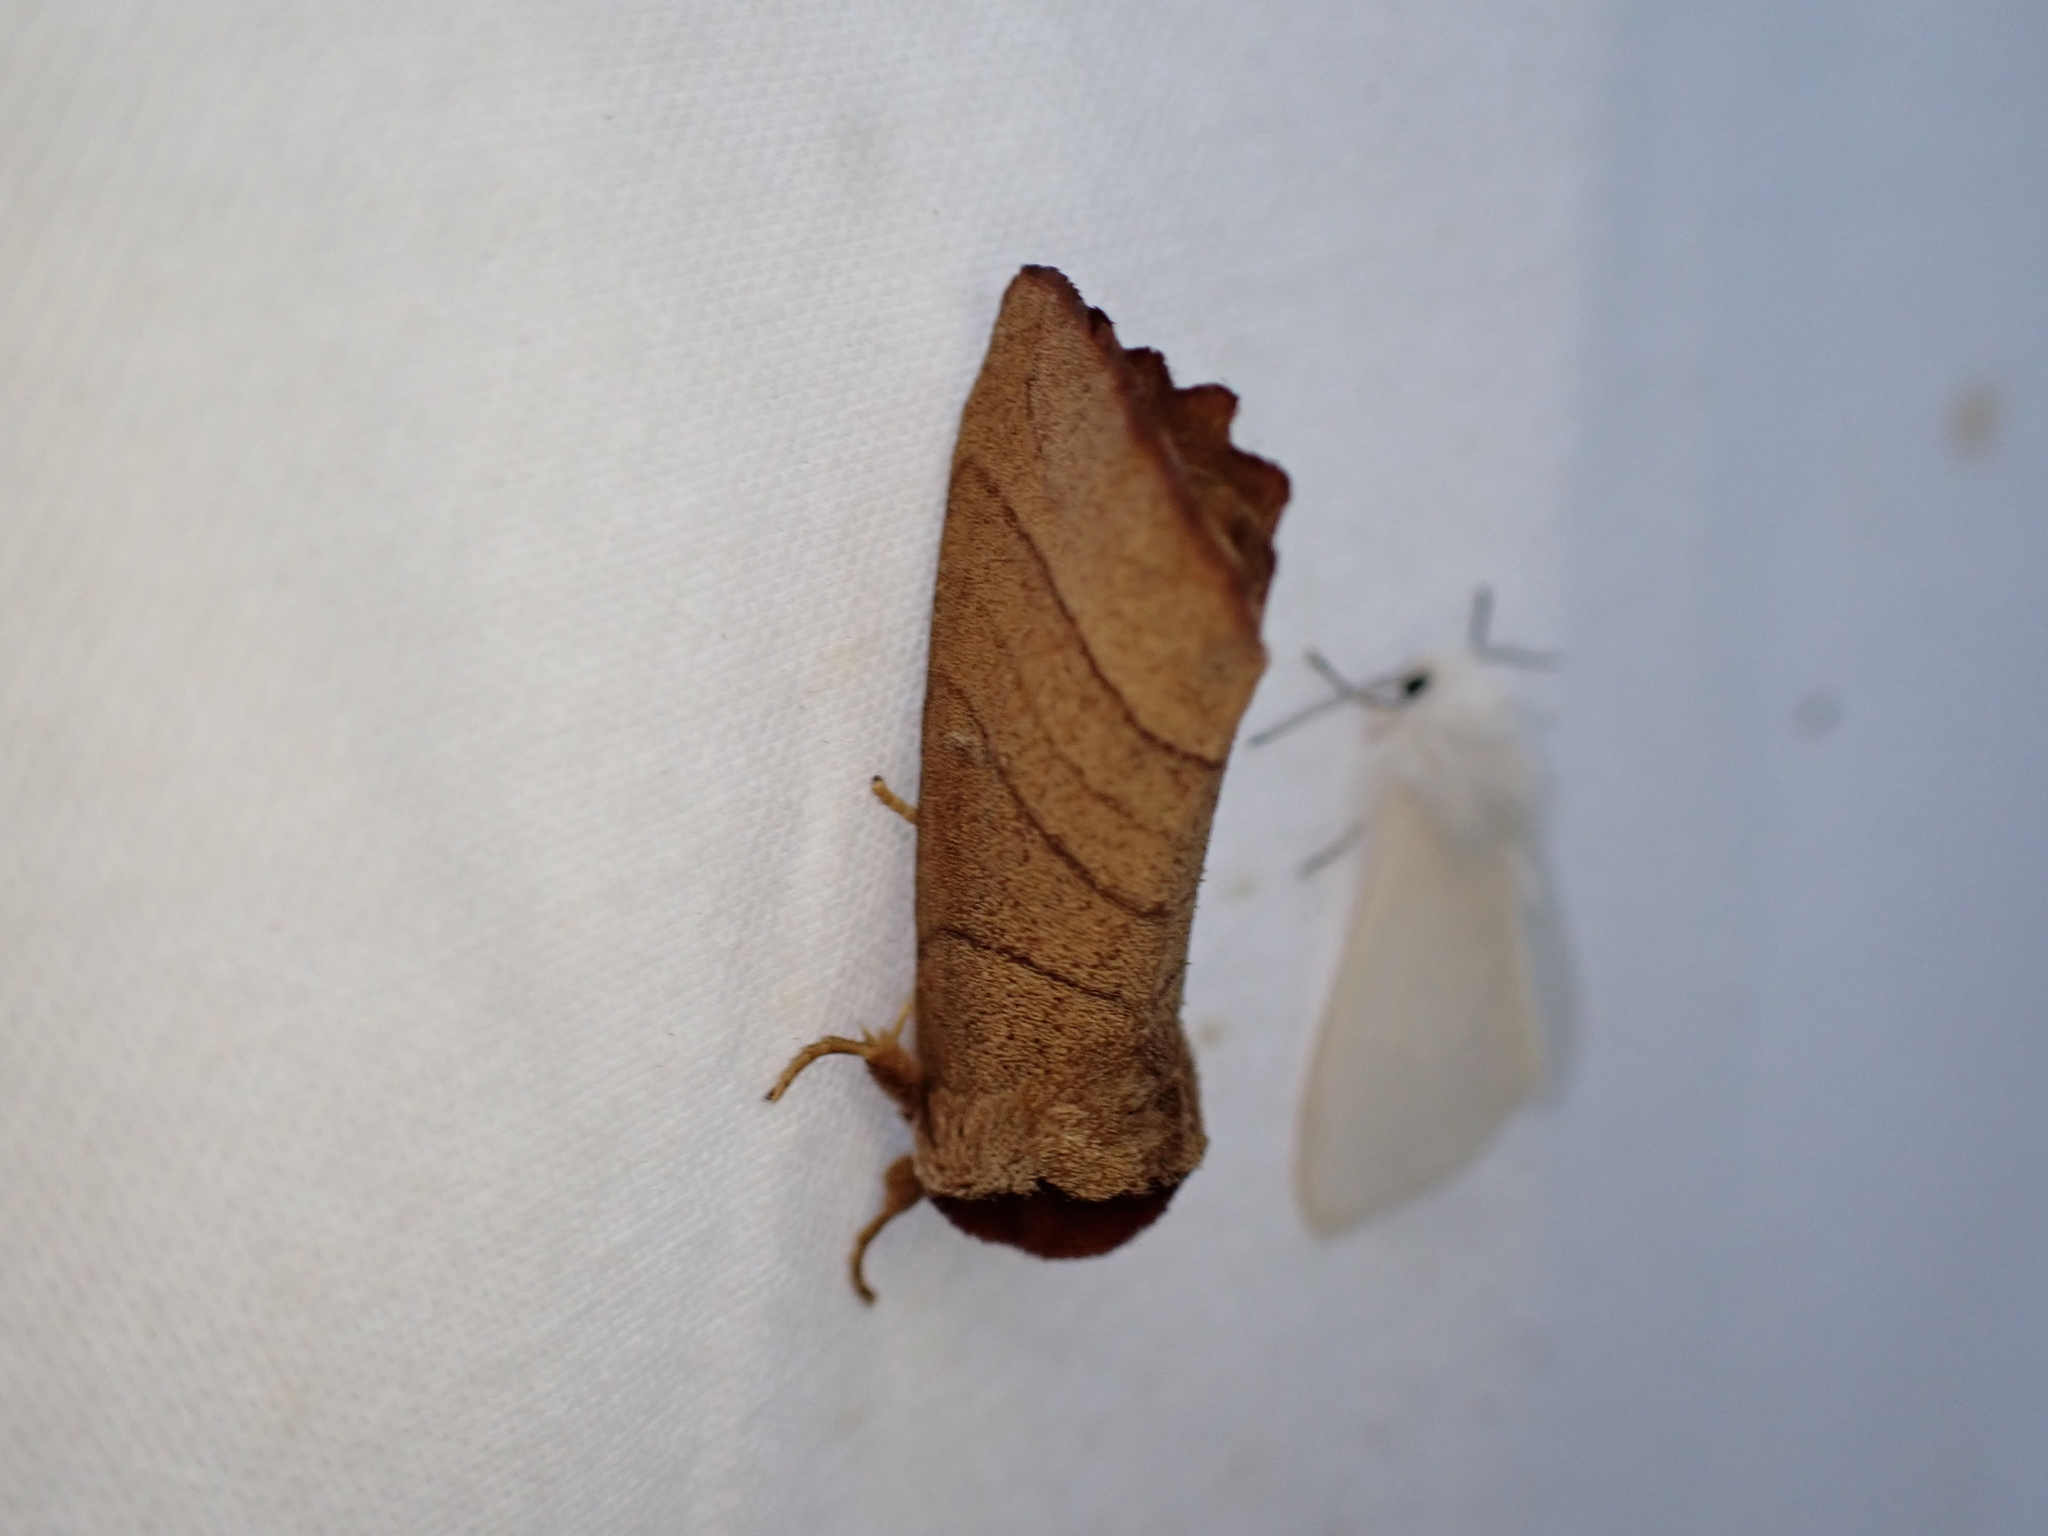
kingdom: Animalia
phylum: Arthropoda
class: Insecta
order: Lepidoptera
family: Notodontidae
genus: Datana
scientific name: Datana
